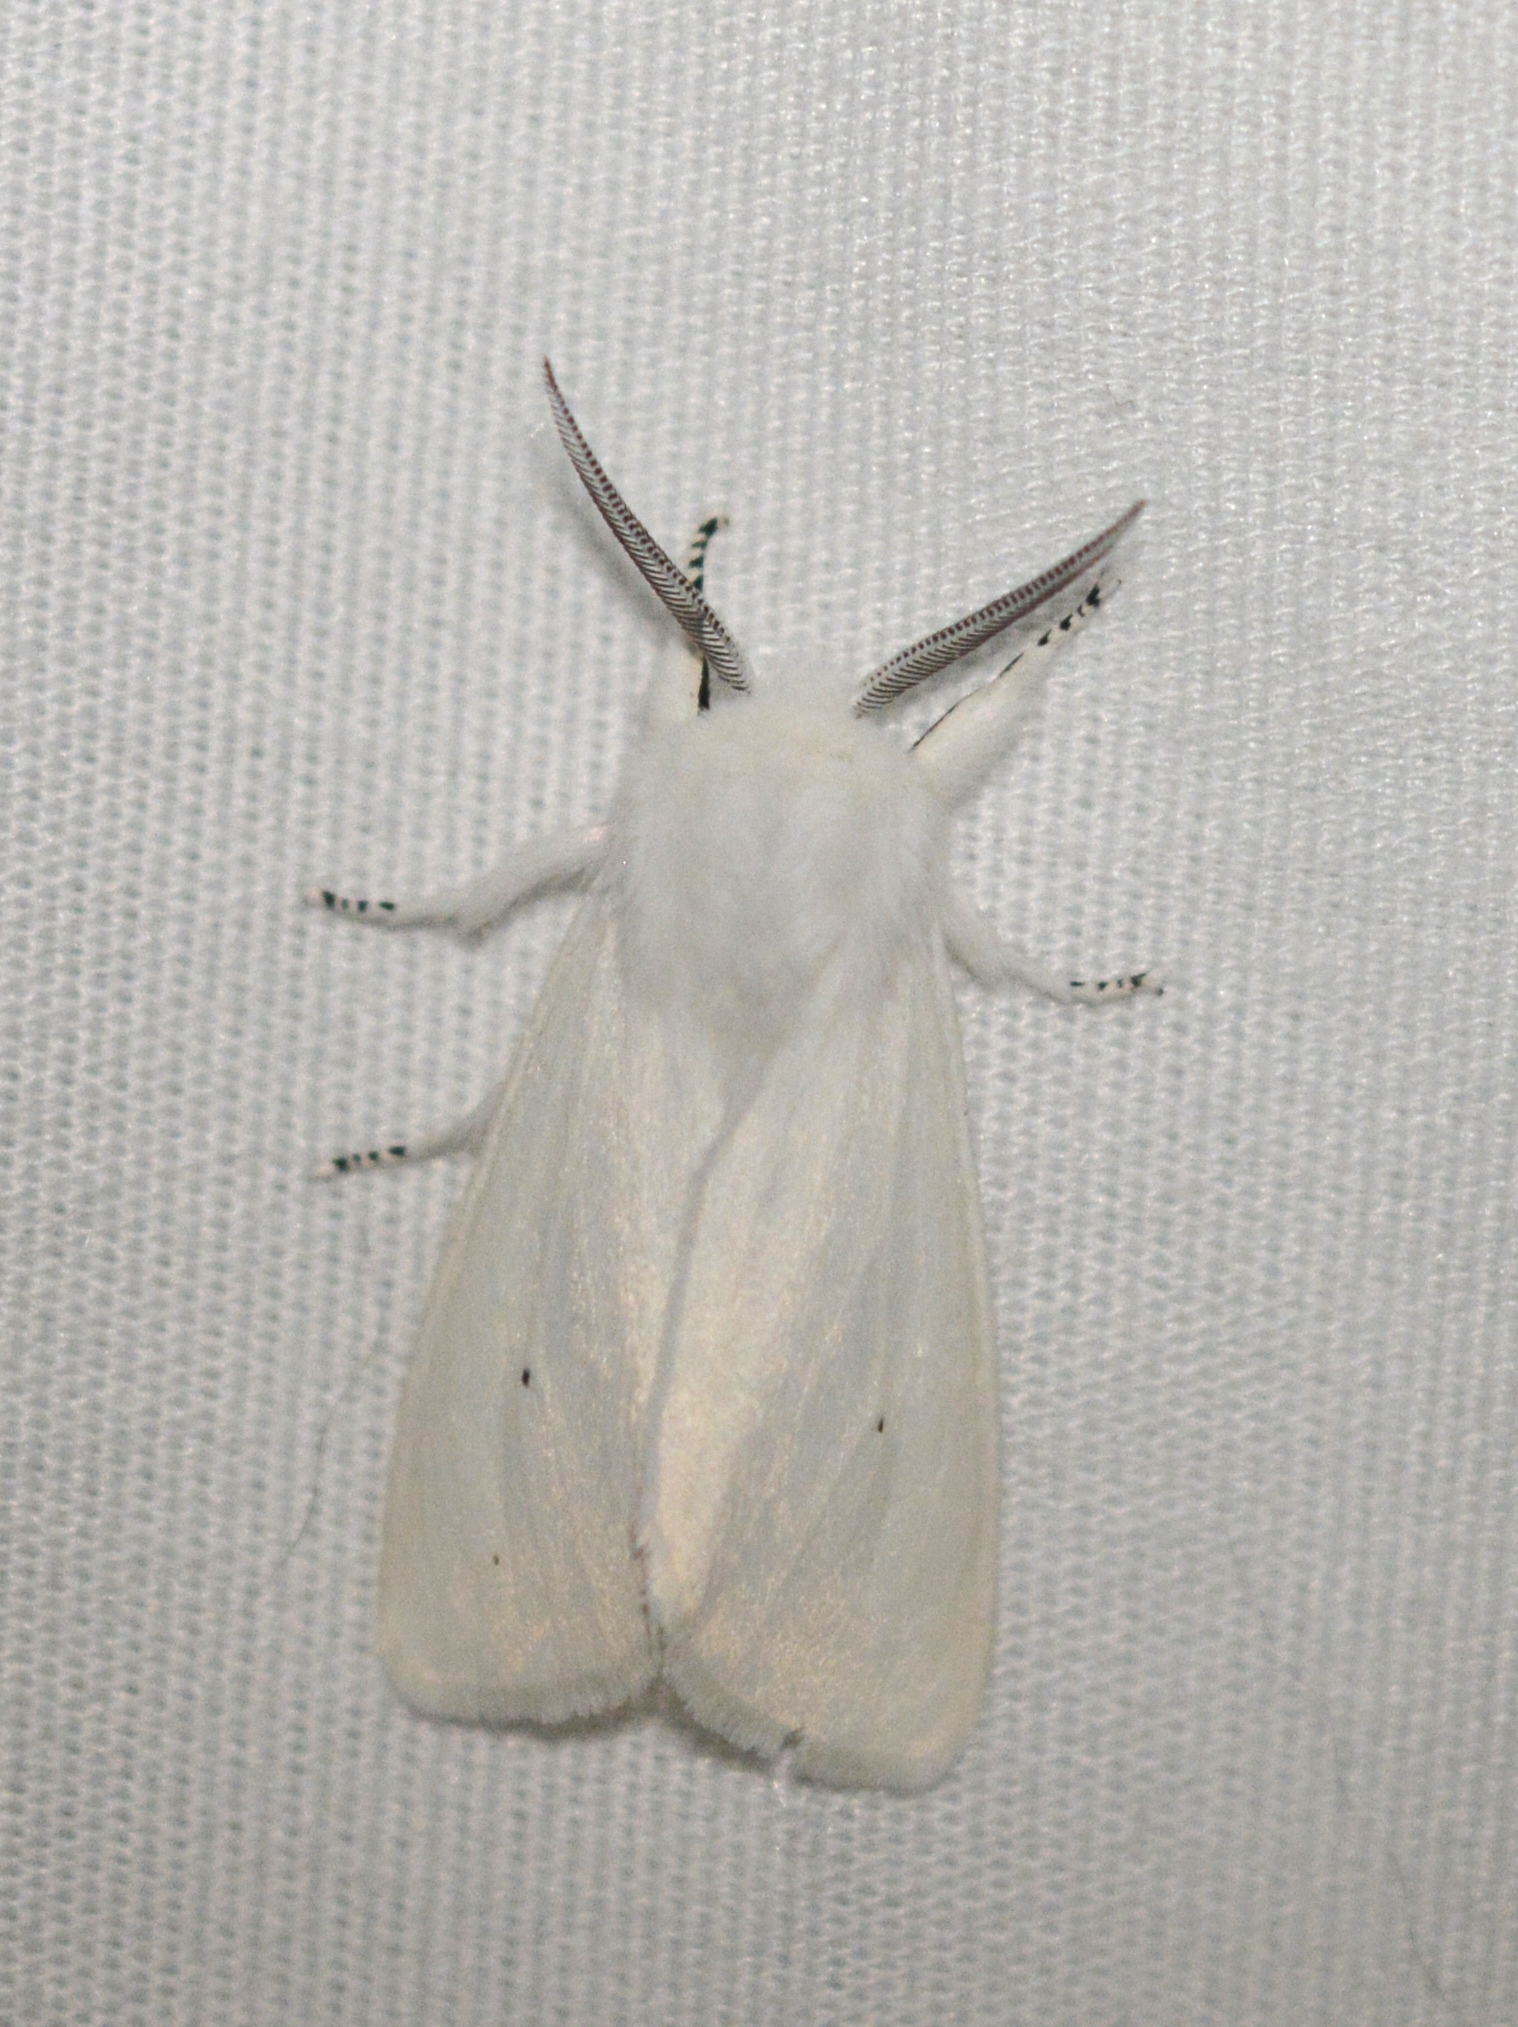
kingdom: Animalia
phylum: Arthropoda
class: Insecta
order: Lepidoptera
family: Erebidae
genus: Spilosoma
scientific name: Spilosoma virginica
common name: Virginia tiger moth
